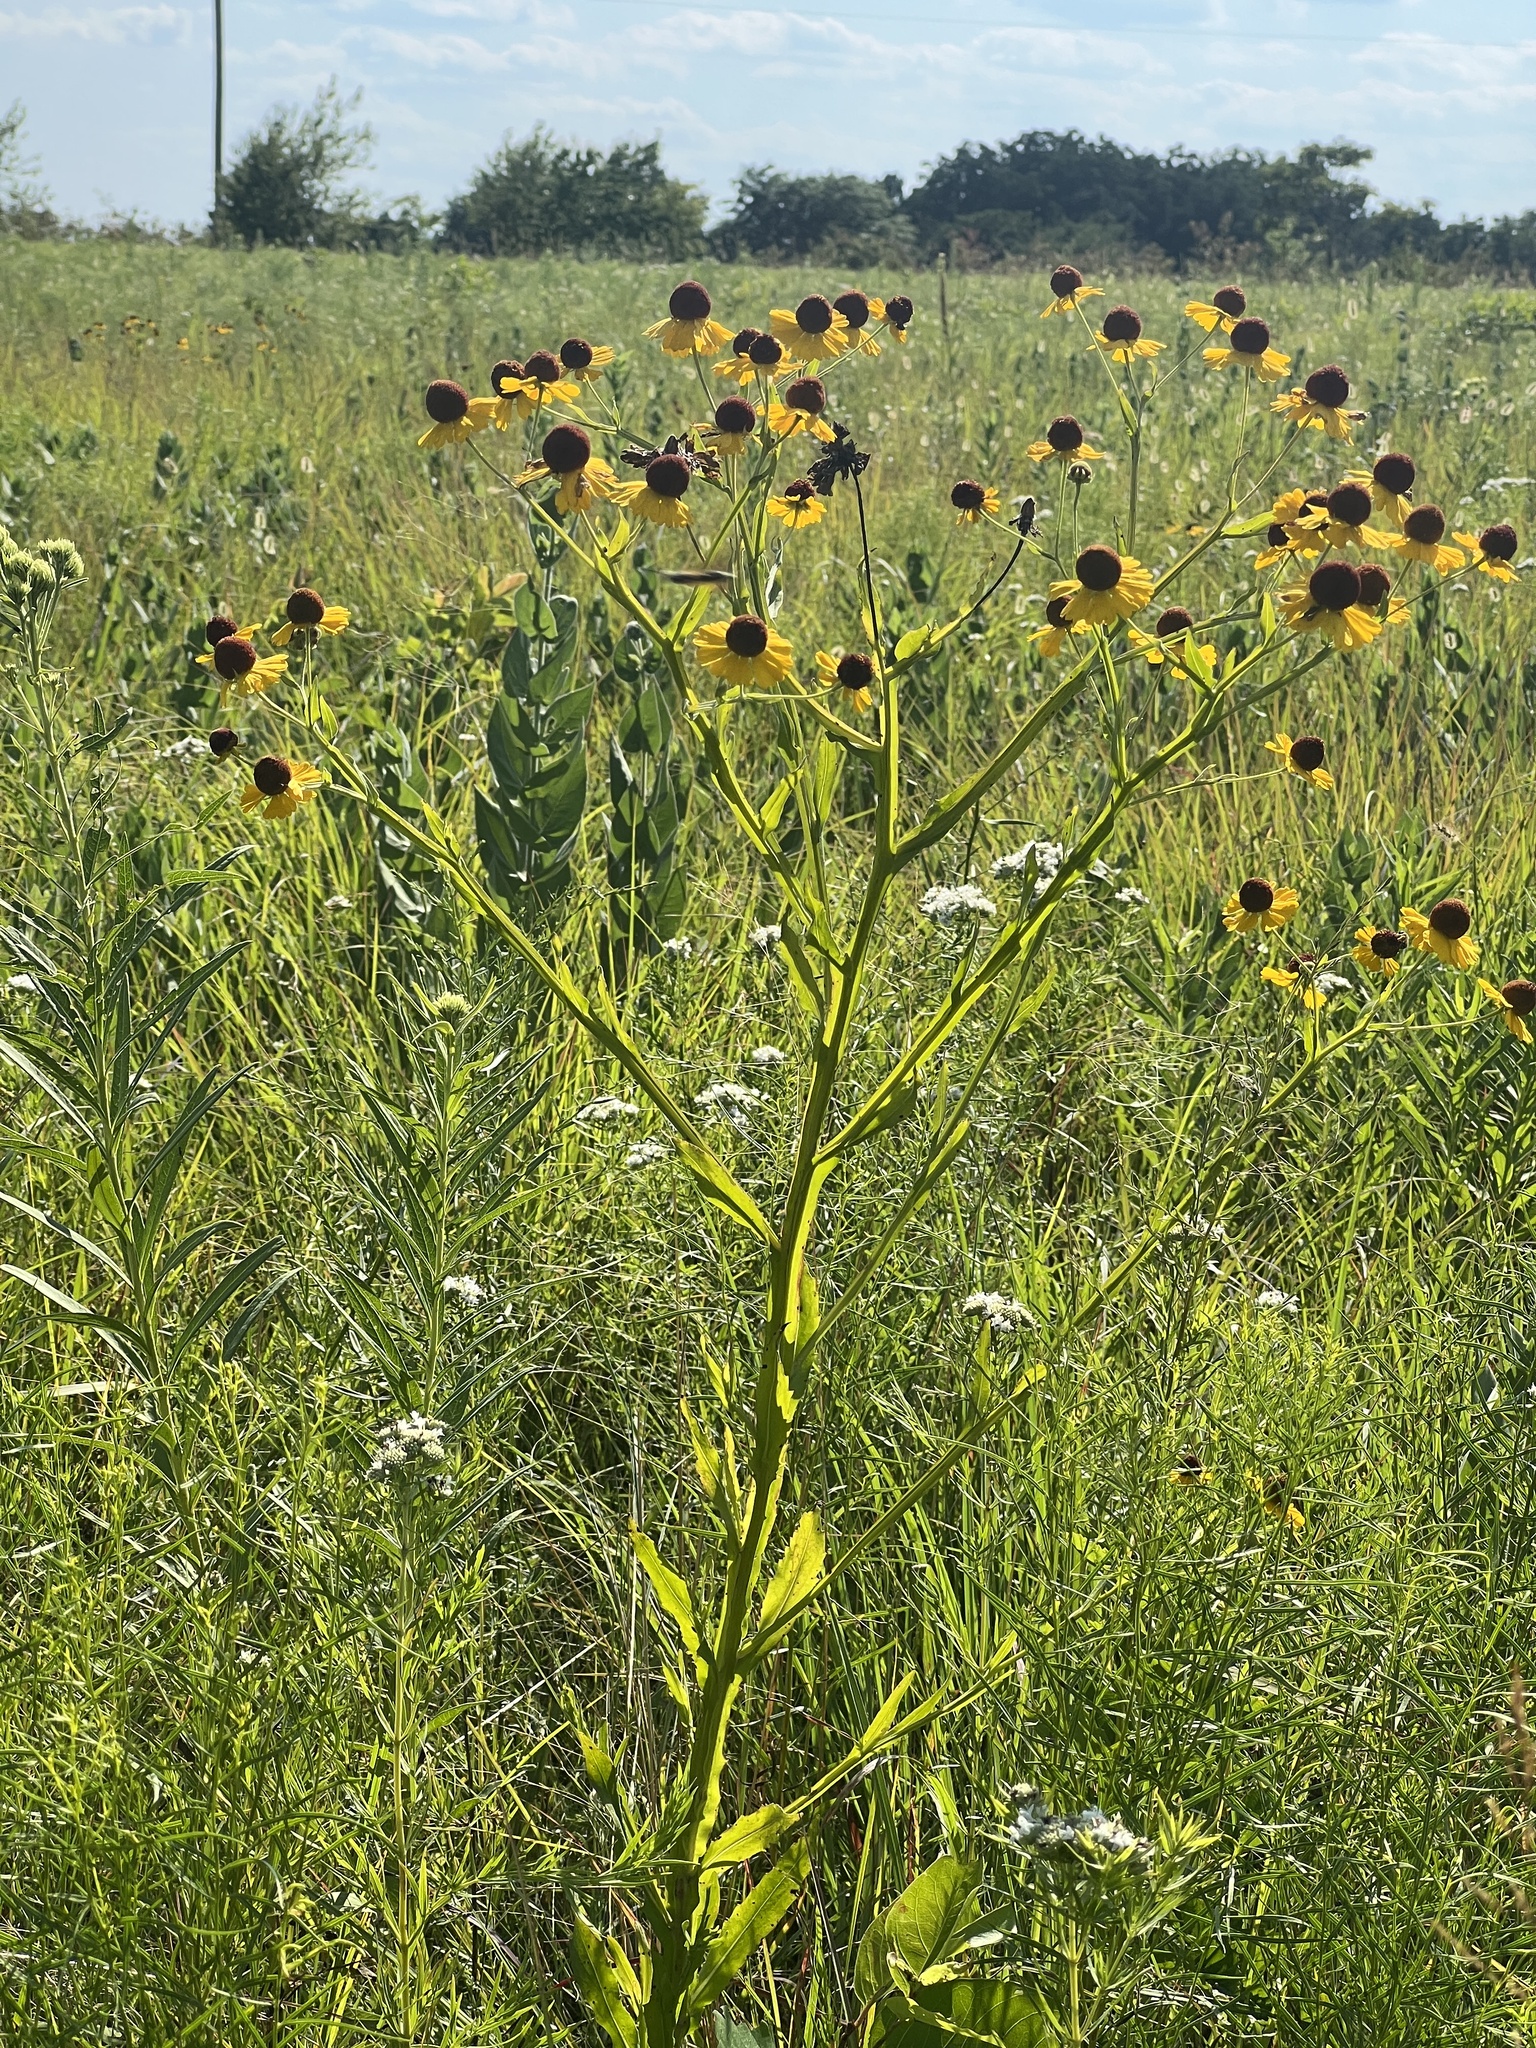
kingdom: Plantae
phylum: Tracheophyta
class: Magnoliopsida
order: Asterales
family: Asteraceae
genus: Helenium
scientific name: Helenium flexuosum
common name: Naked-flowered sneezeweed
